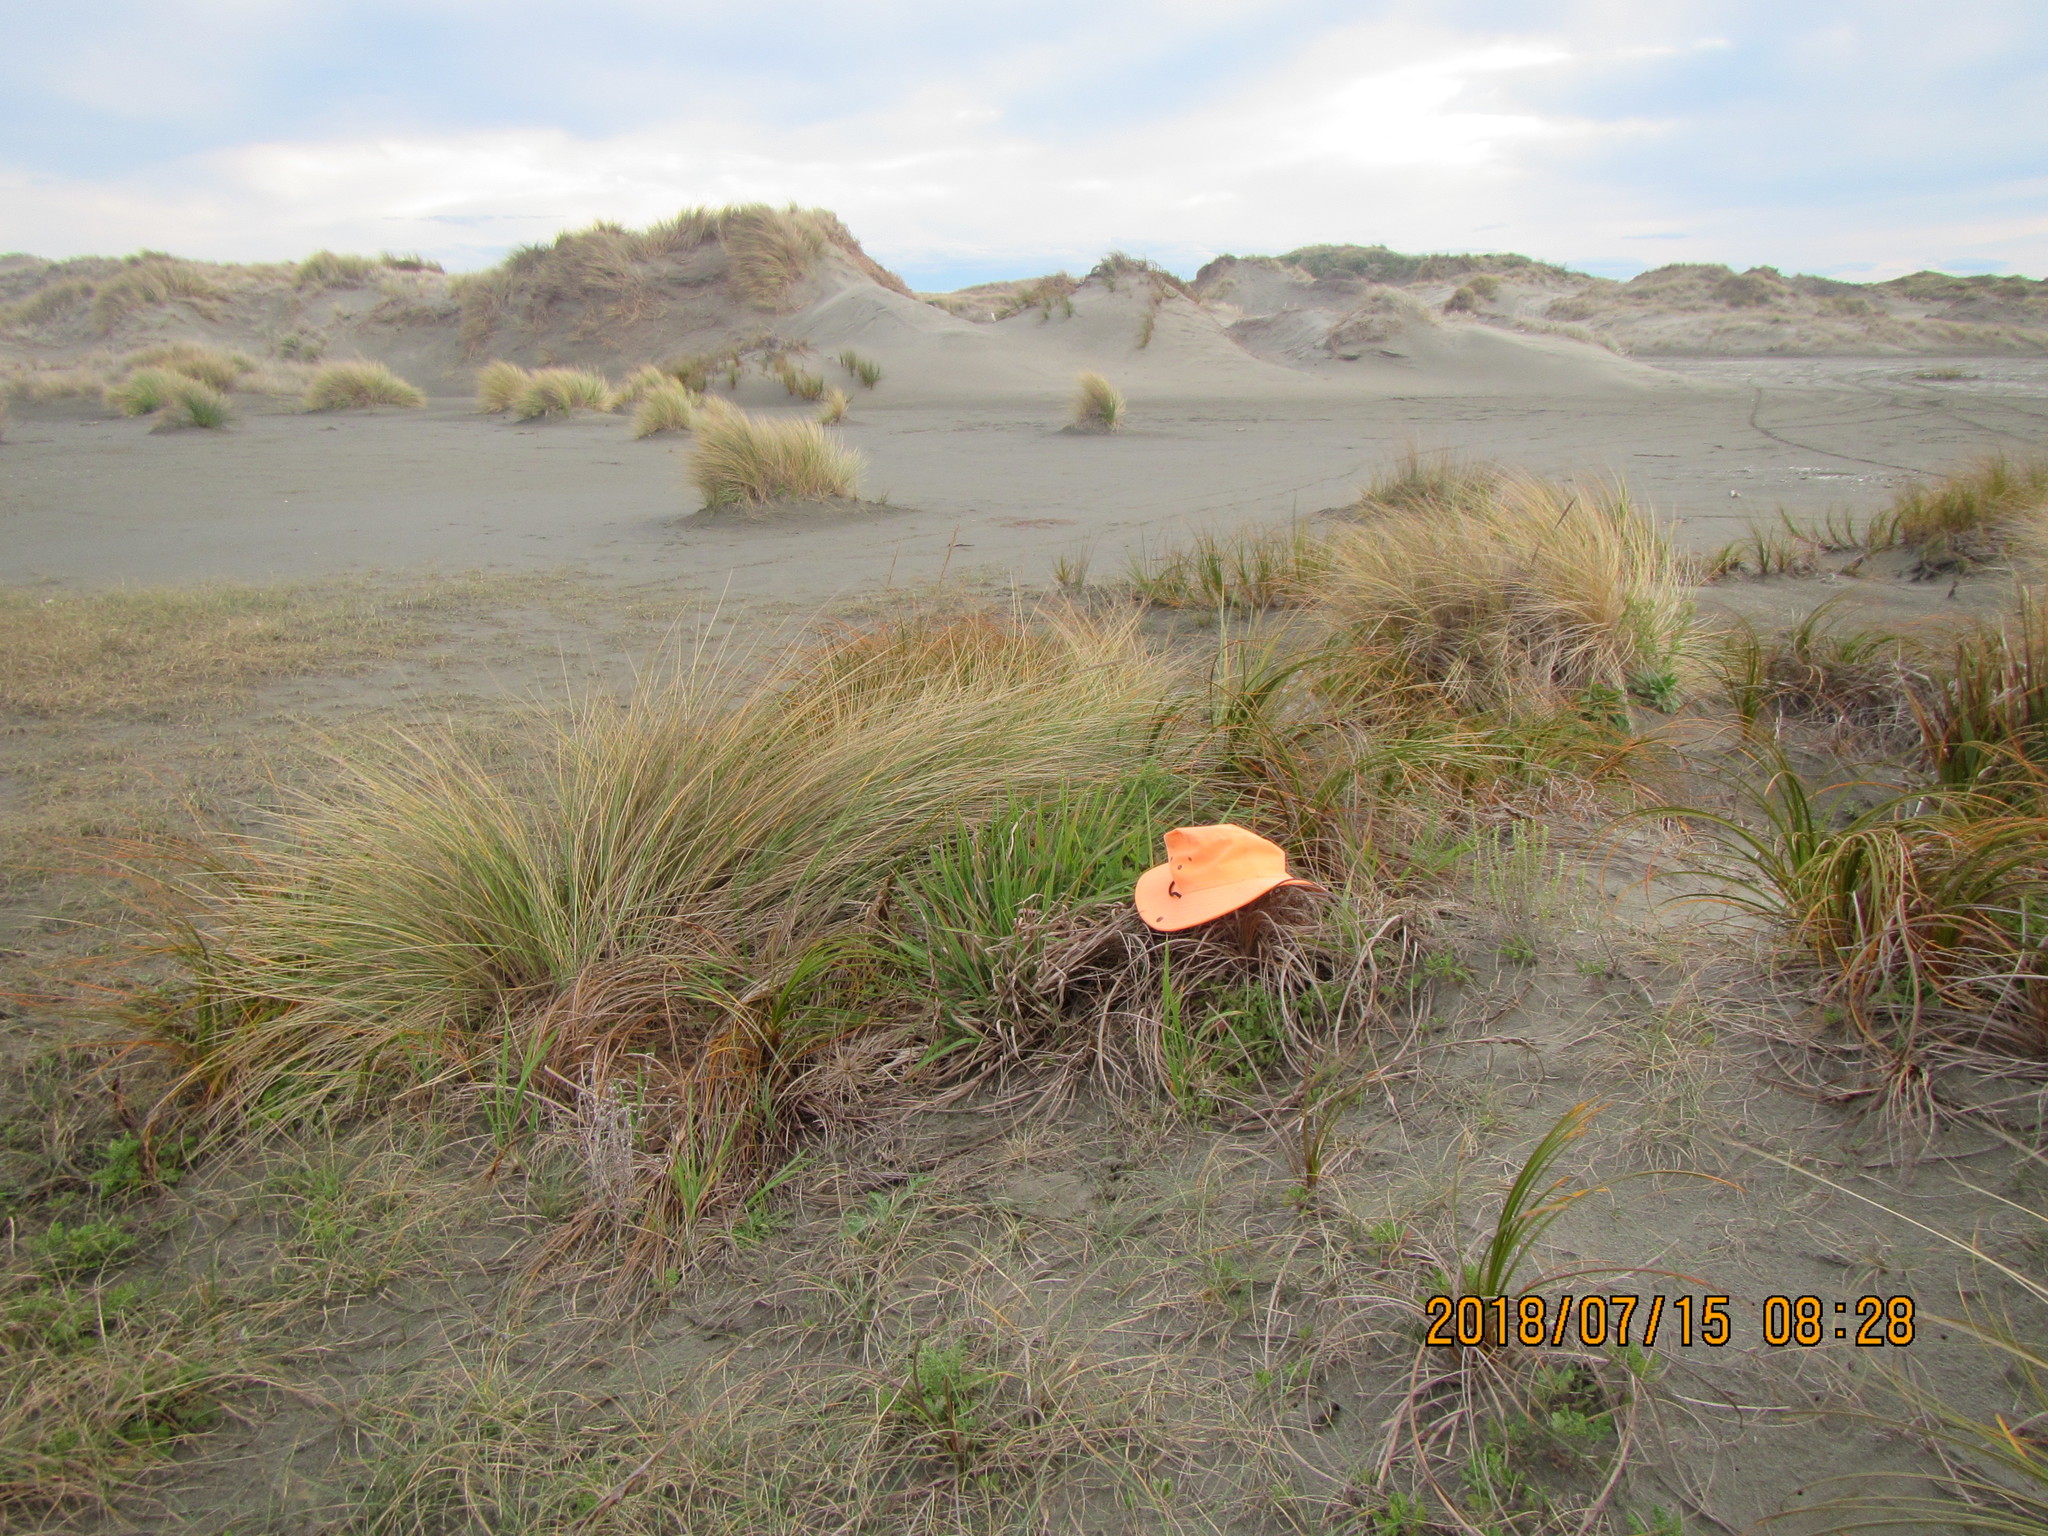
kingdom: Plantae
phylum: Tracheophyta
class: Liliopsida
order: Poales
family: Poaceae
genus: Lachnagrostis
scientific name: Lachnagrostis billardierei
